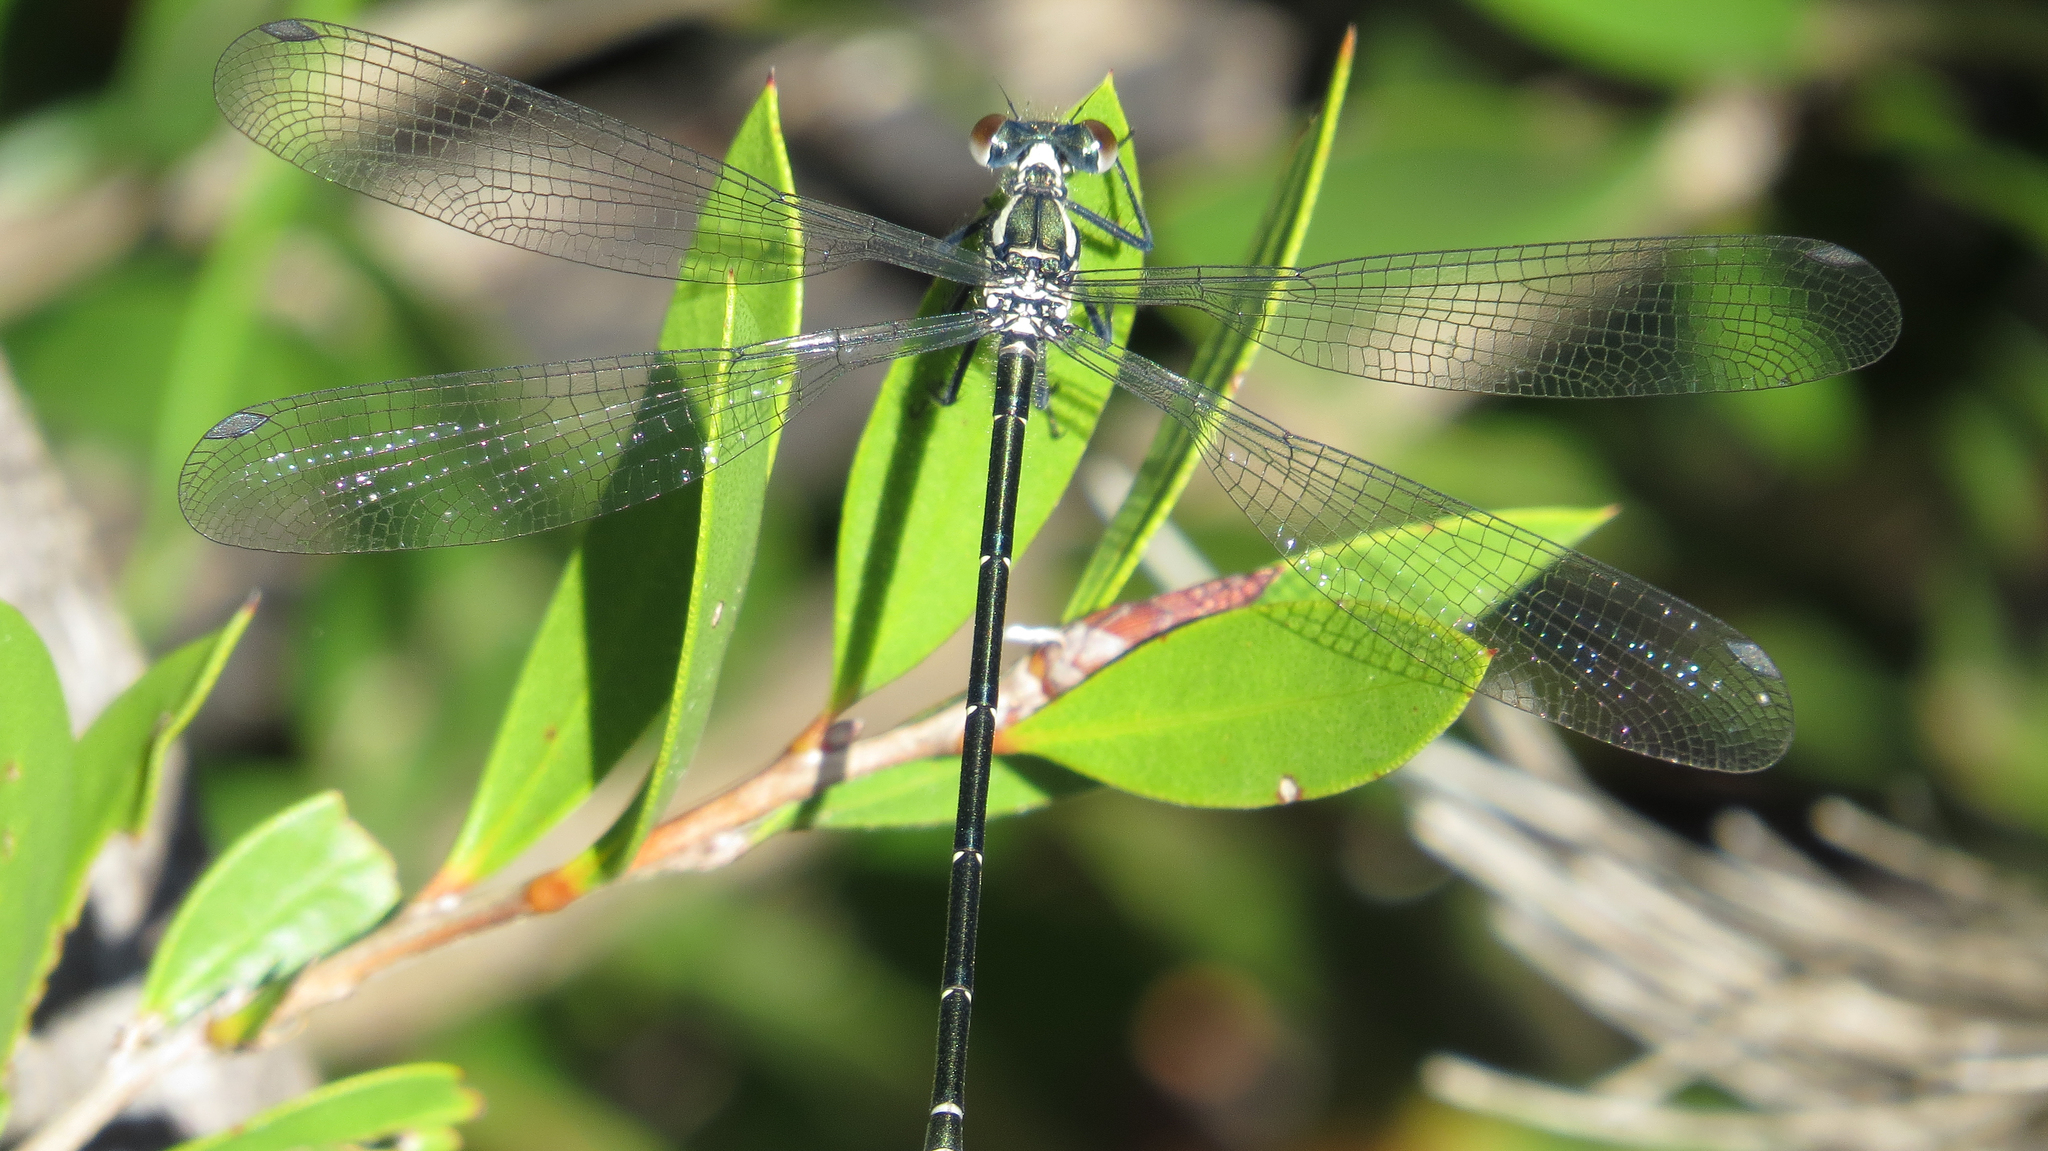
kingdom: Animalia
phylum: Arthropoda
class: Insecta
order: Odonata
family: Argiolestidae
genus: Austroargiolestes
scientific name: Austroargiolestes icteromelas
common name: Common flatwing
